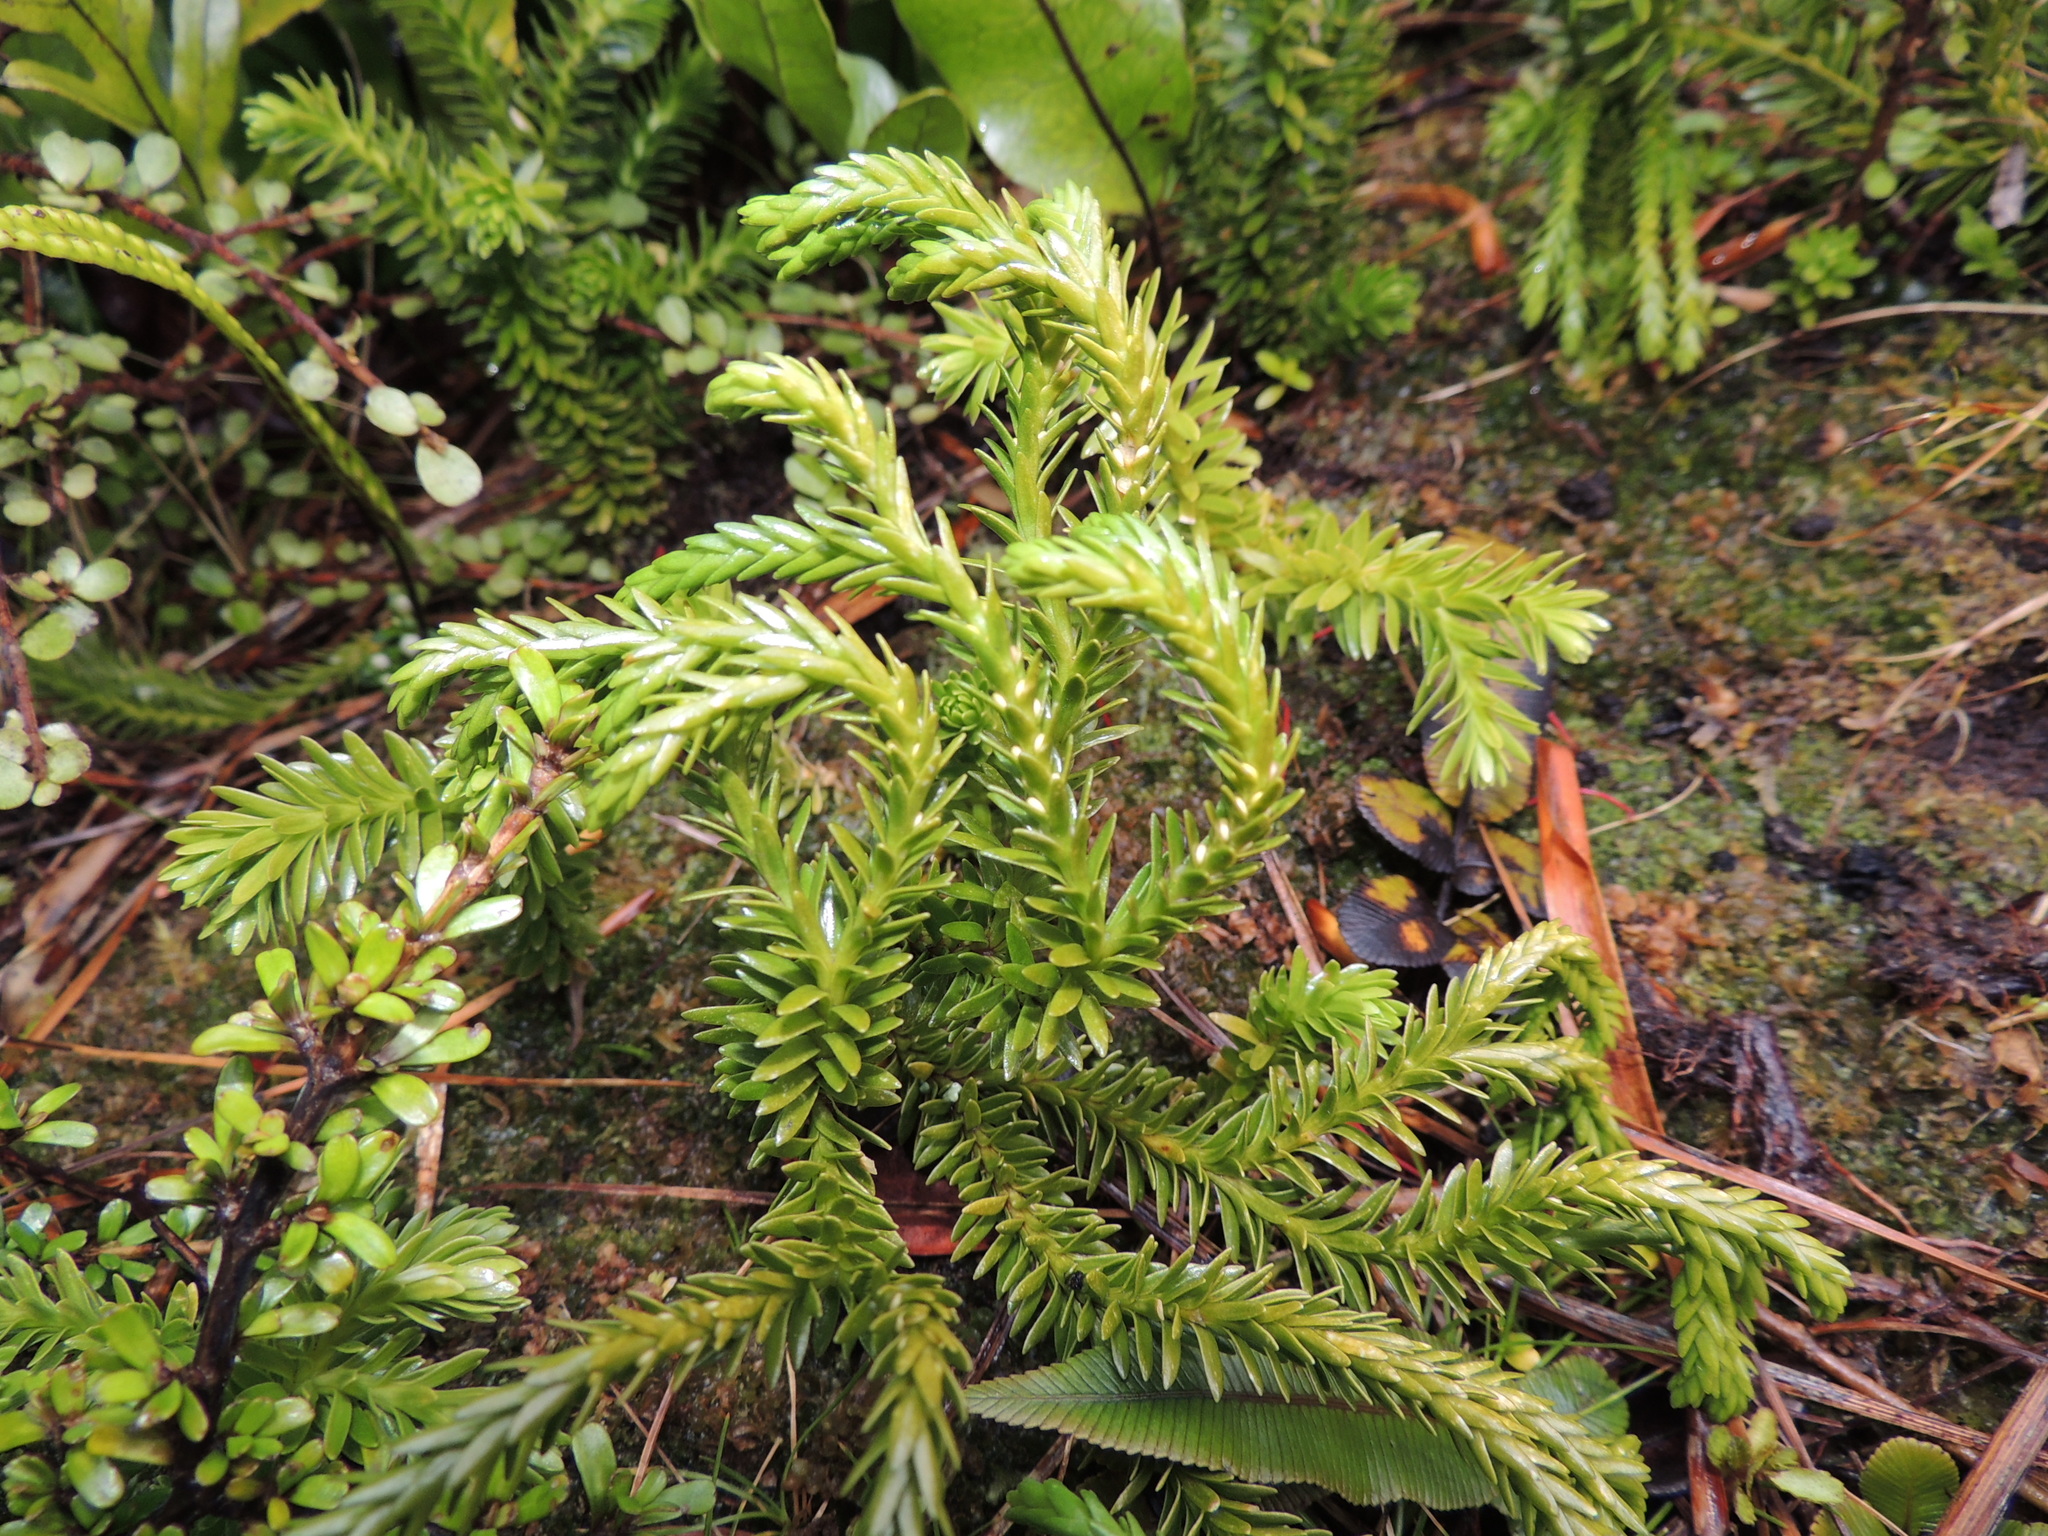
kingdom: Plantae
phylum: Tracheophyta
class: Lycopodiopsida
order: Lycopodiales
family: Lycopodiaceae
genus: Phlegmariurus
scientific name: Phlegmariurus varius
